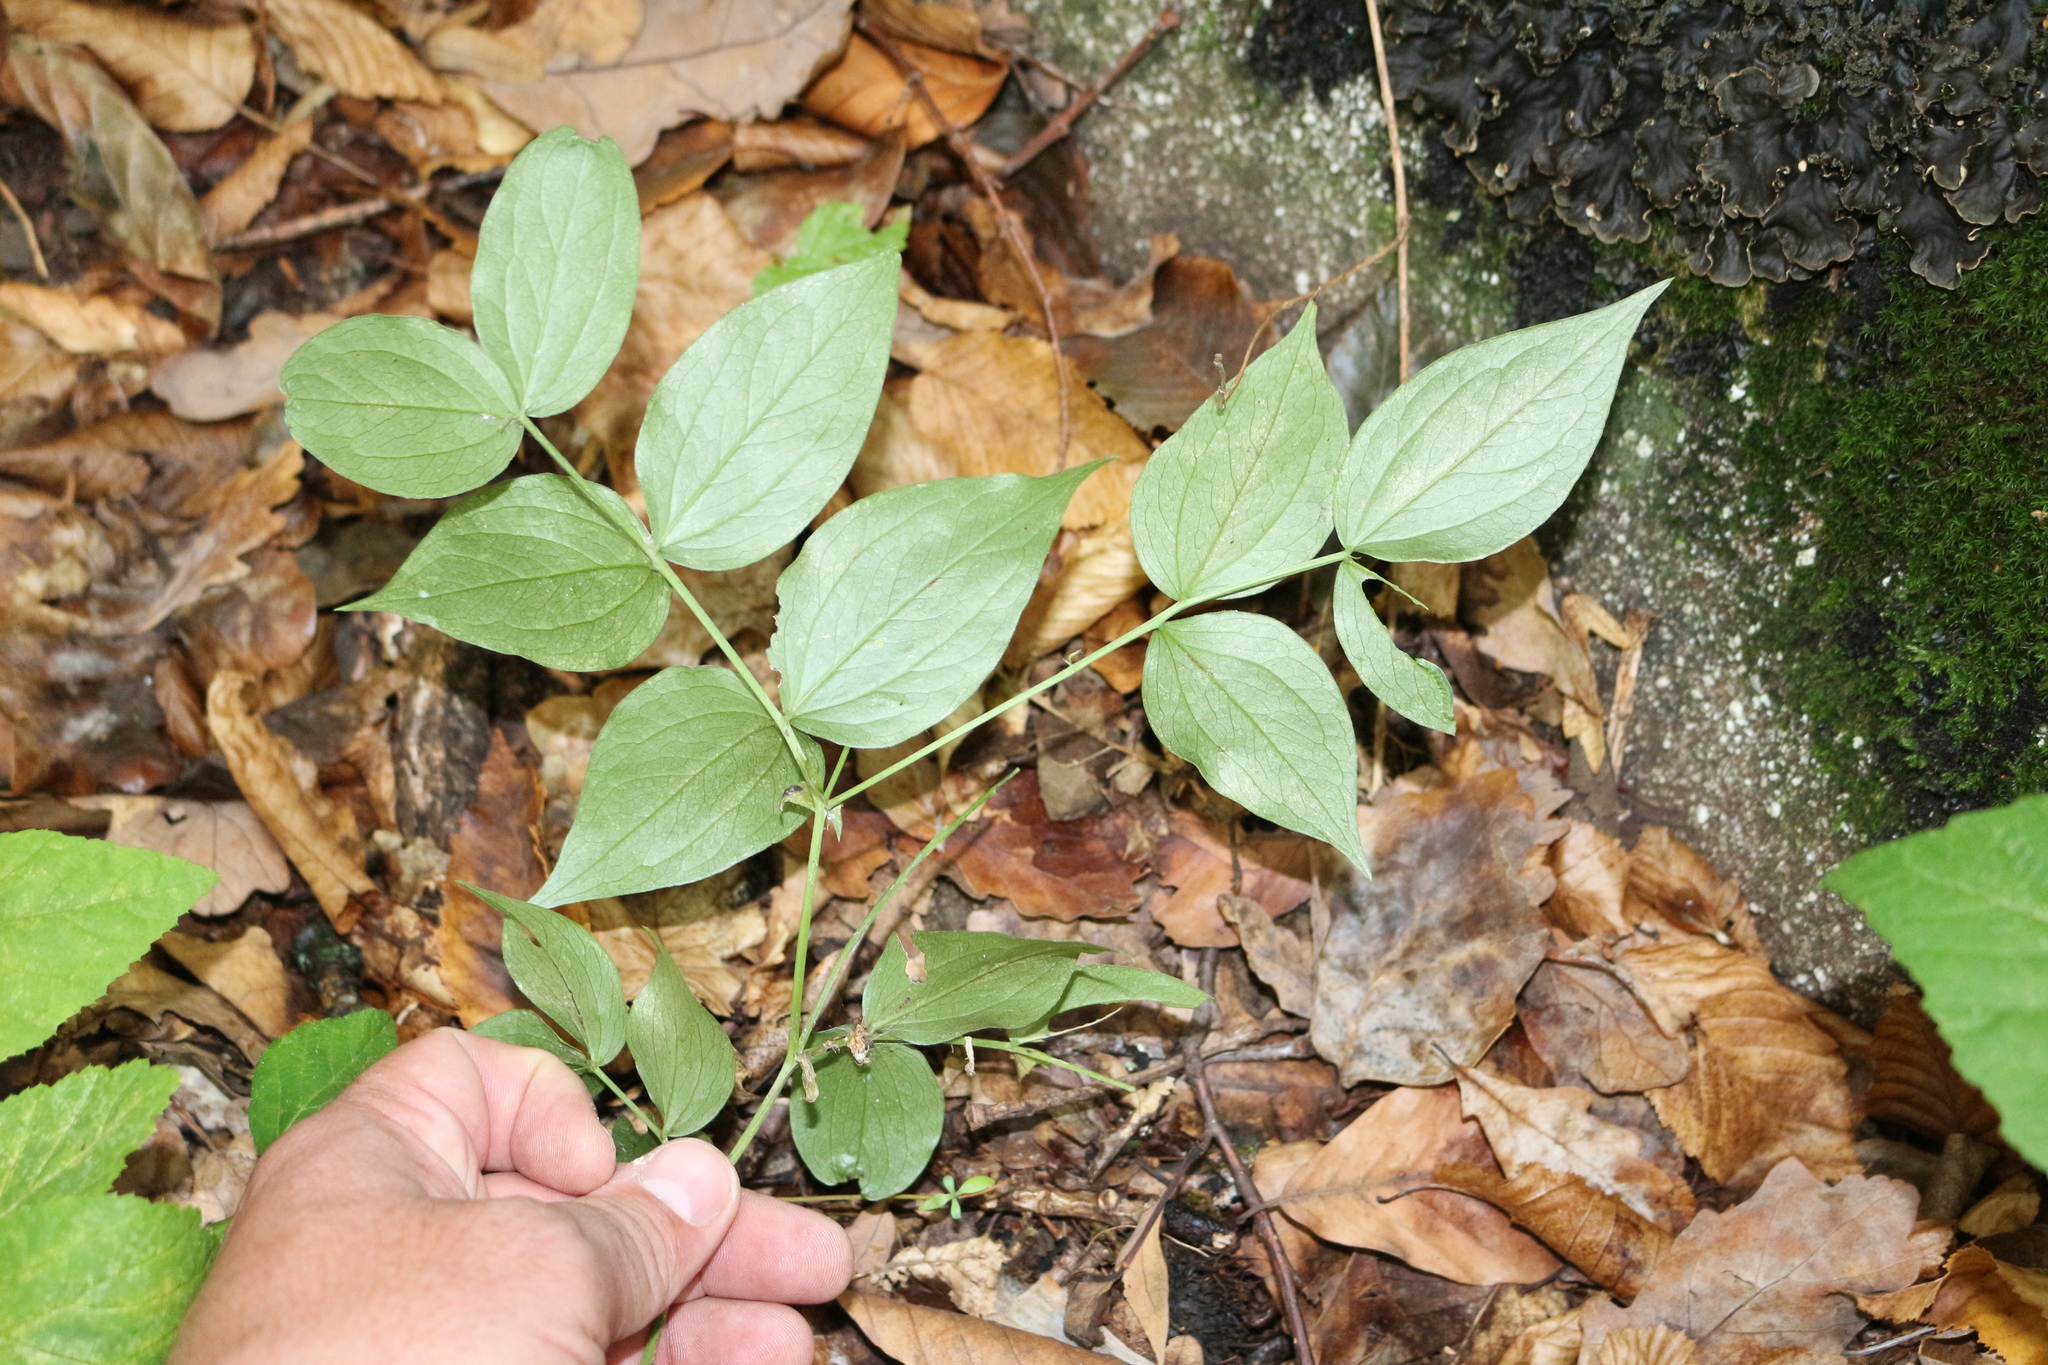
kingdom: Plantae
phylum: Tracheophyta
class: Magnoliopsida
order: Fabales
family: Fabaceae
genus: Lathyrus
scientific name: Lathyrus vernus
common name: Spring pea
